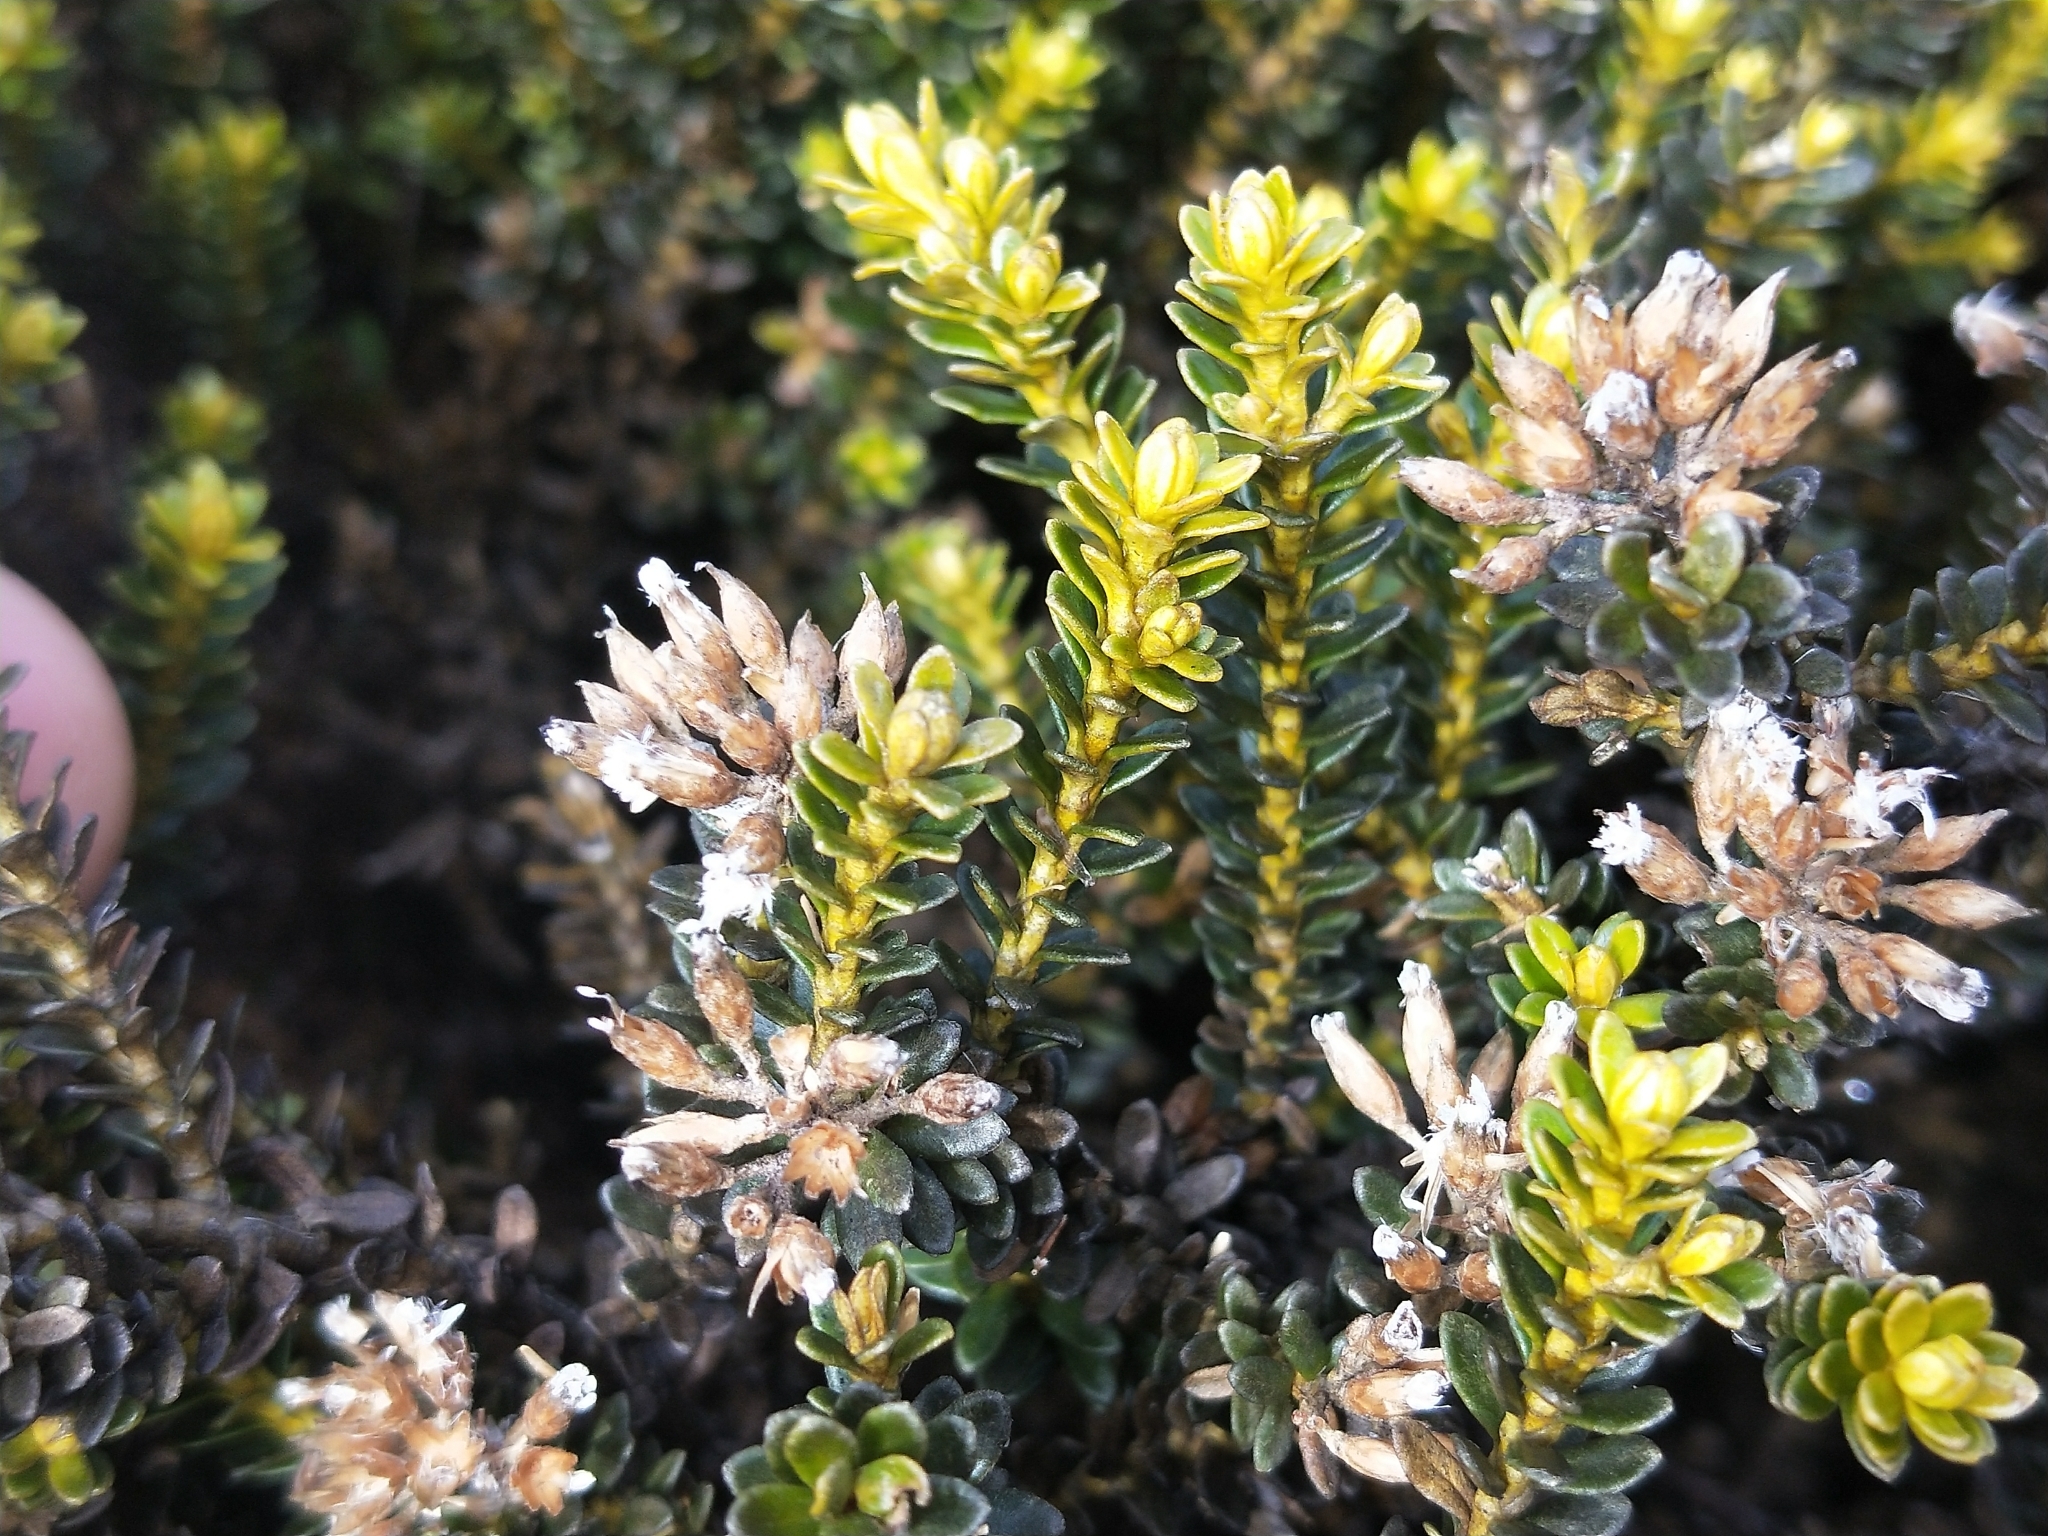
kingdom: Plantae
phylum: Tracheophyta
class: Magnoliopsida
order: Asterales
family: Asteraceae
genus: Ozothamnus
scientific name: Ozothamnus leptophyllus
